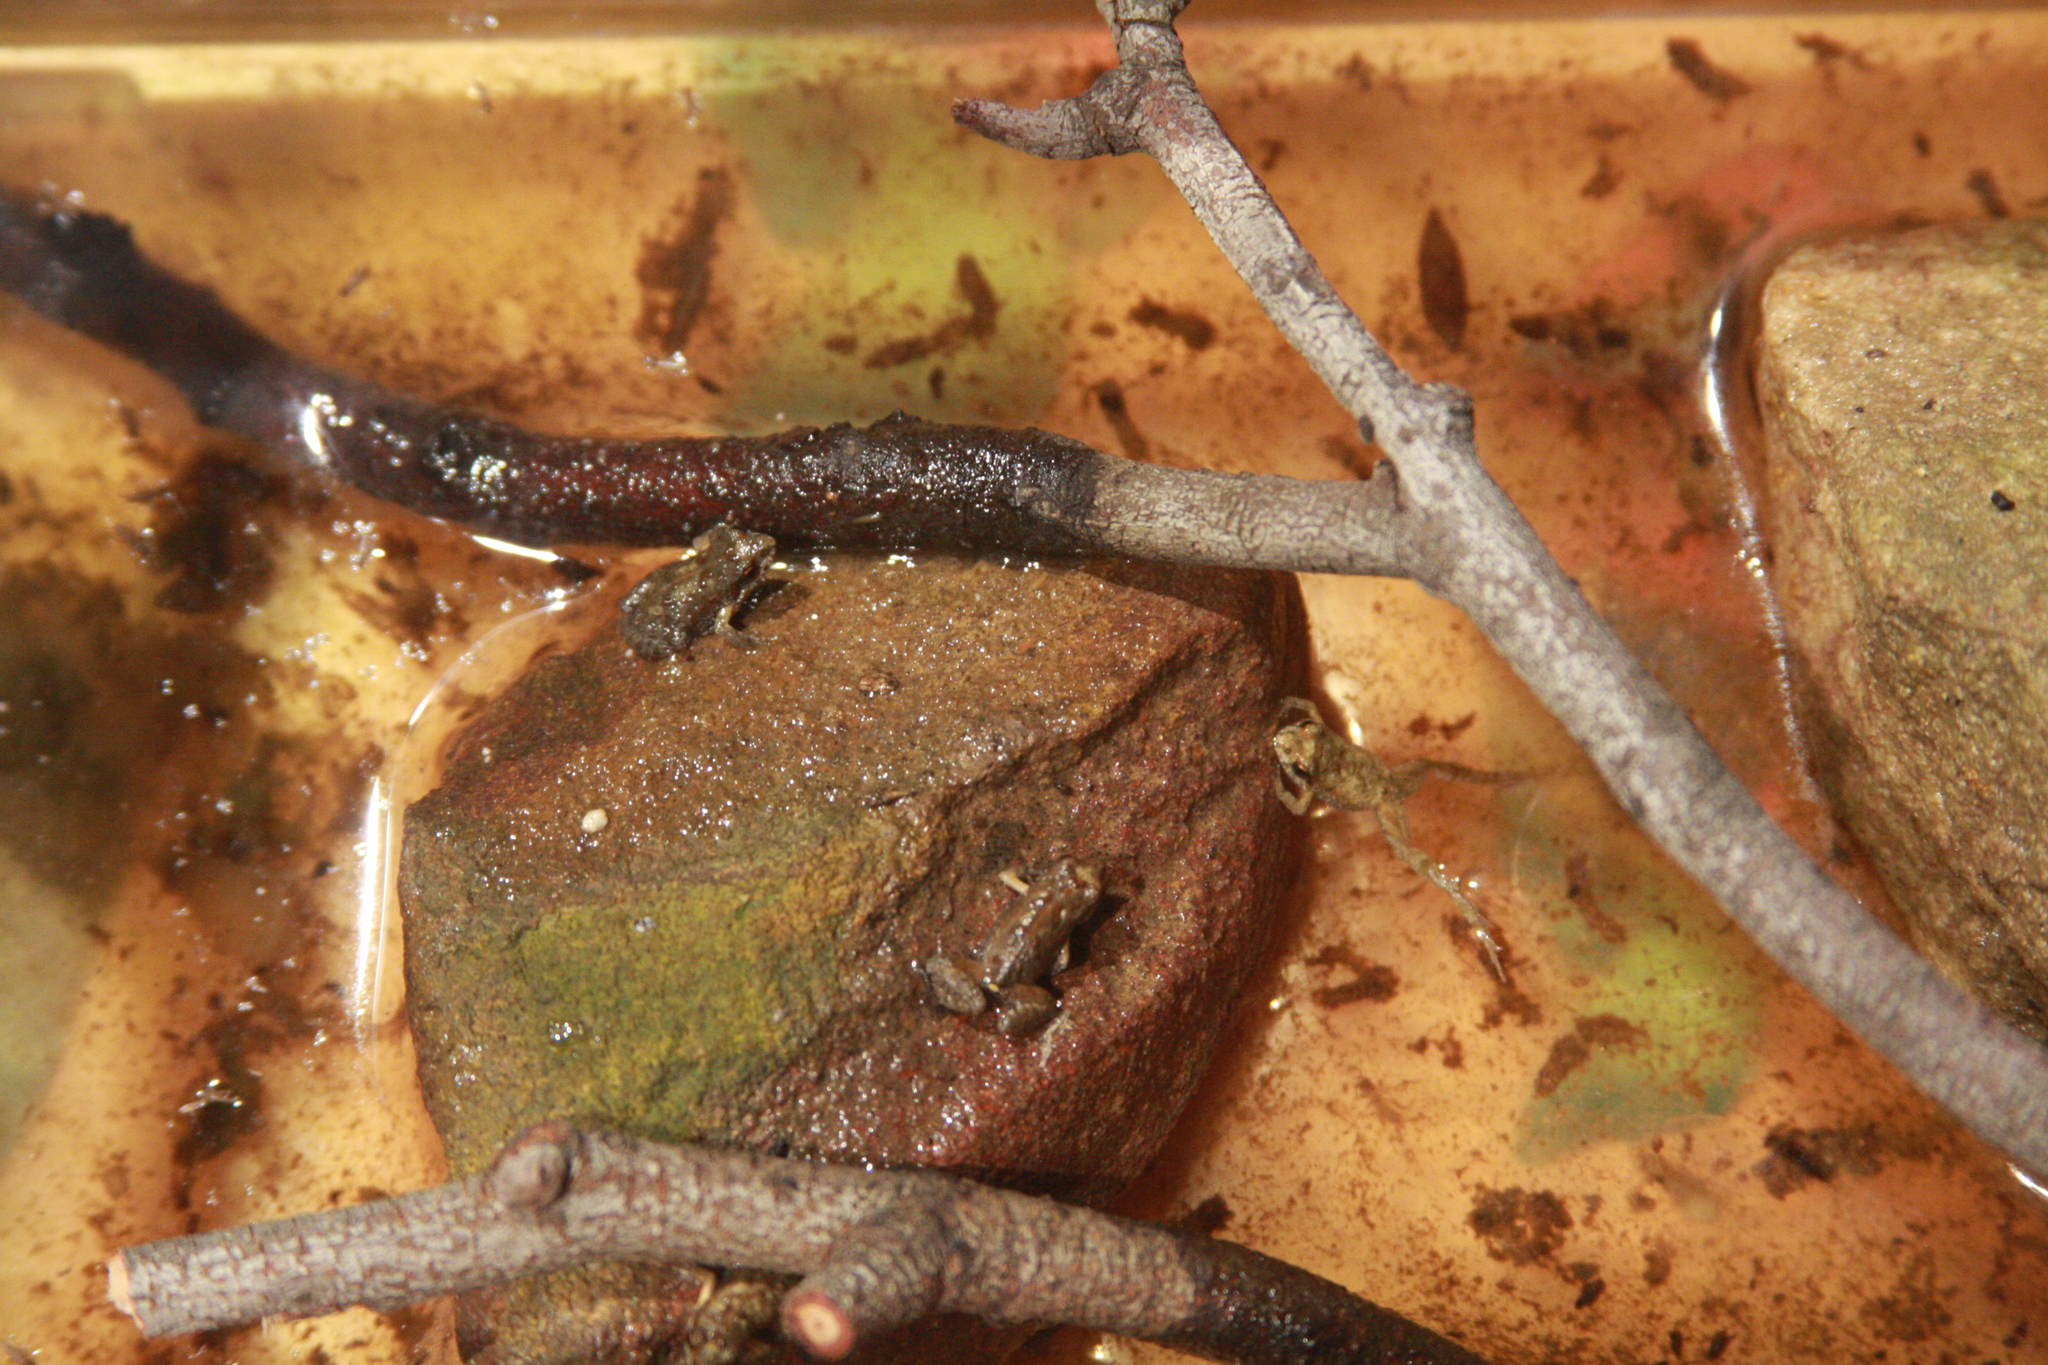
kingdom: Animalia
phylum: Chordata
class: Amphibia
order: Anura
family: Myobatrachidae
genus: Crinia
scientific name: Crinia signifera
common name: Brown froglet
